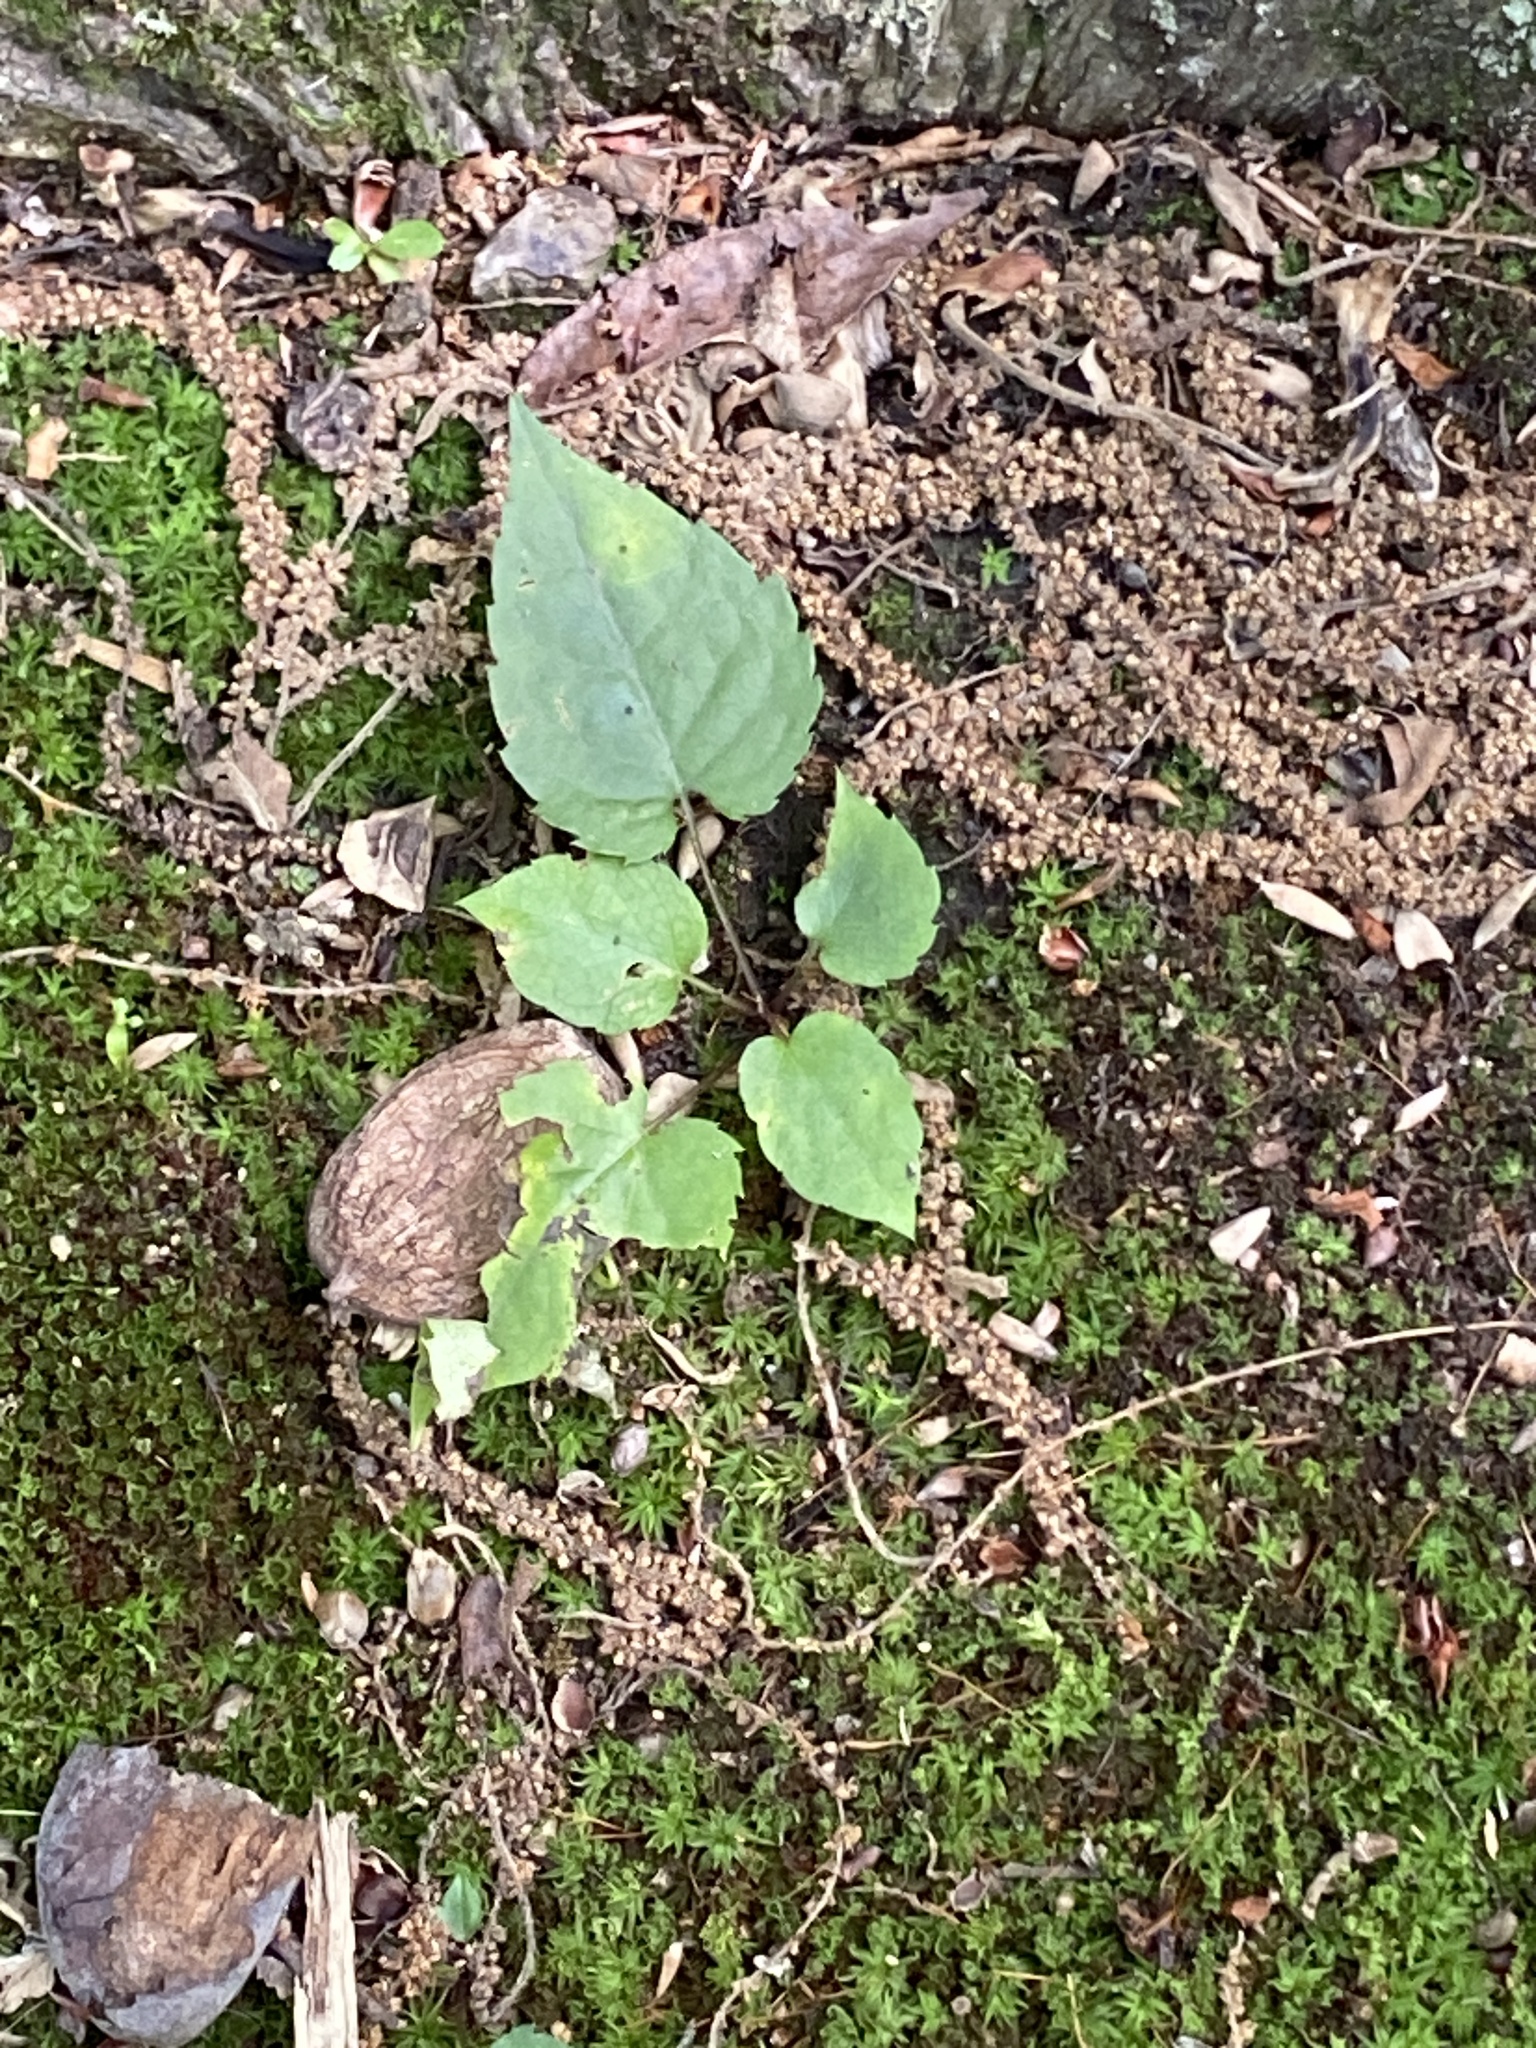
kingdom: Plantae
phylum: Tracheophyta
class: Magnoliopsida
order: Asterales
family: Asteraceae
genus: Eurybia
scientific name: Eurybia divaricata
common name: White wood aster
